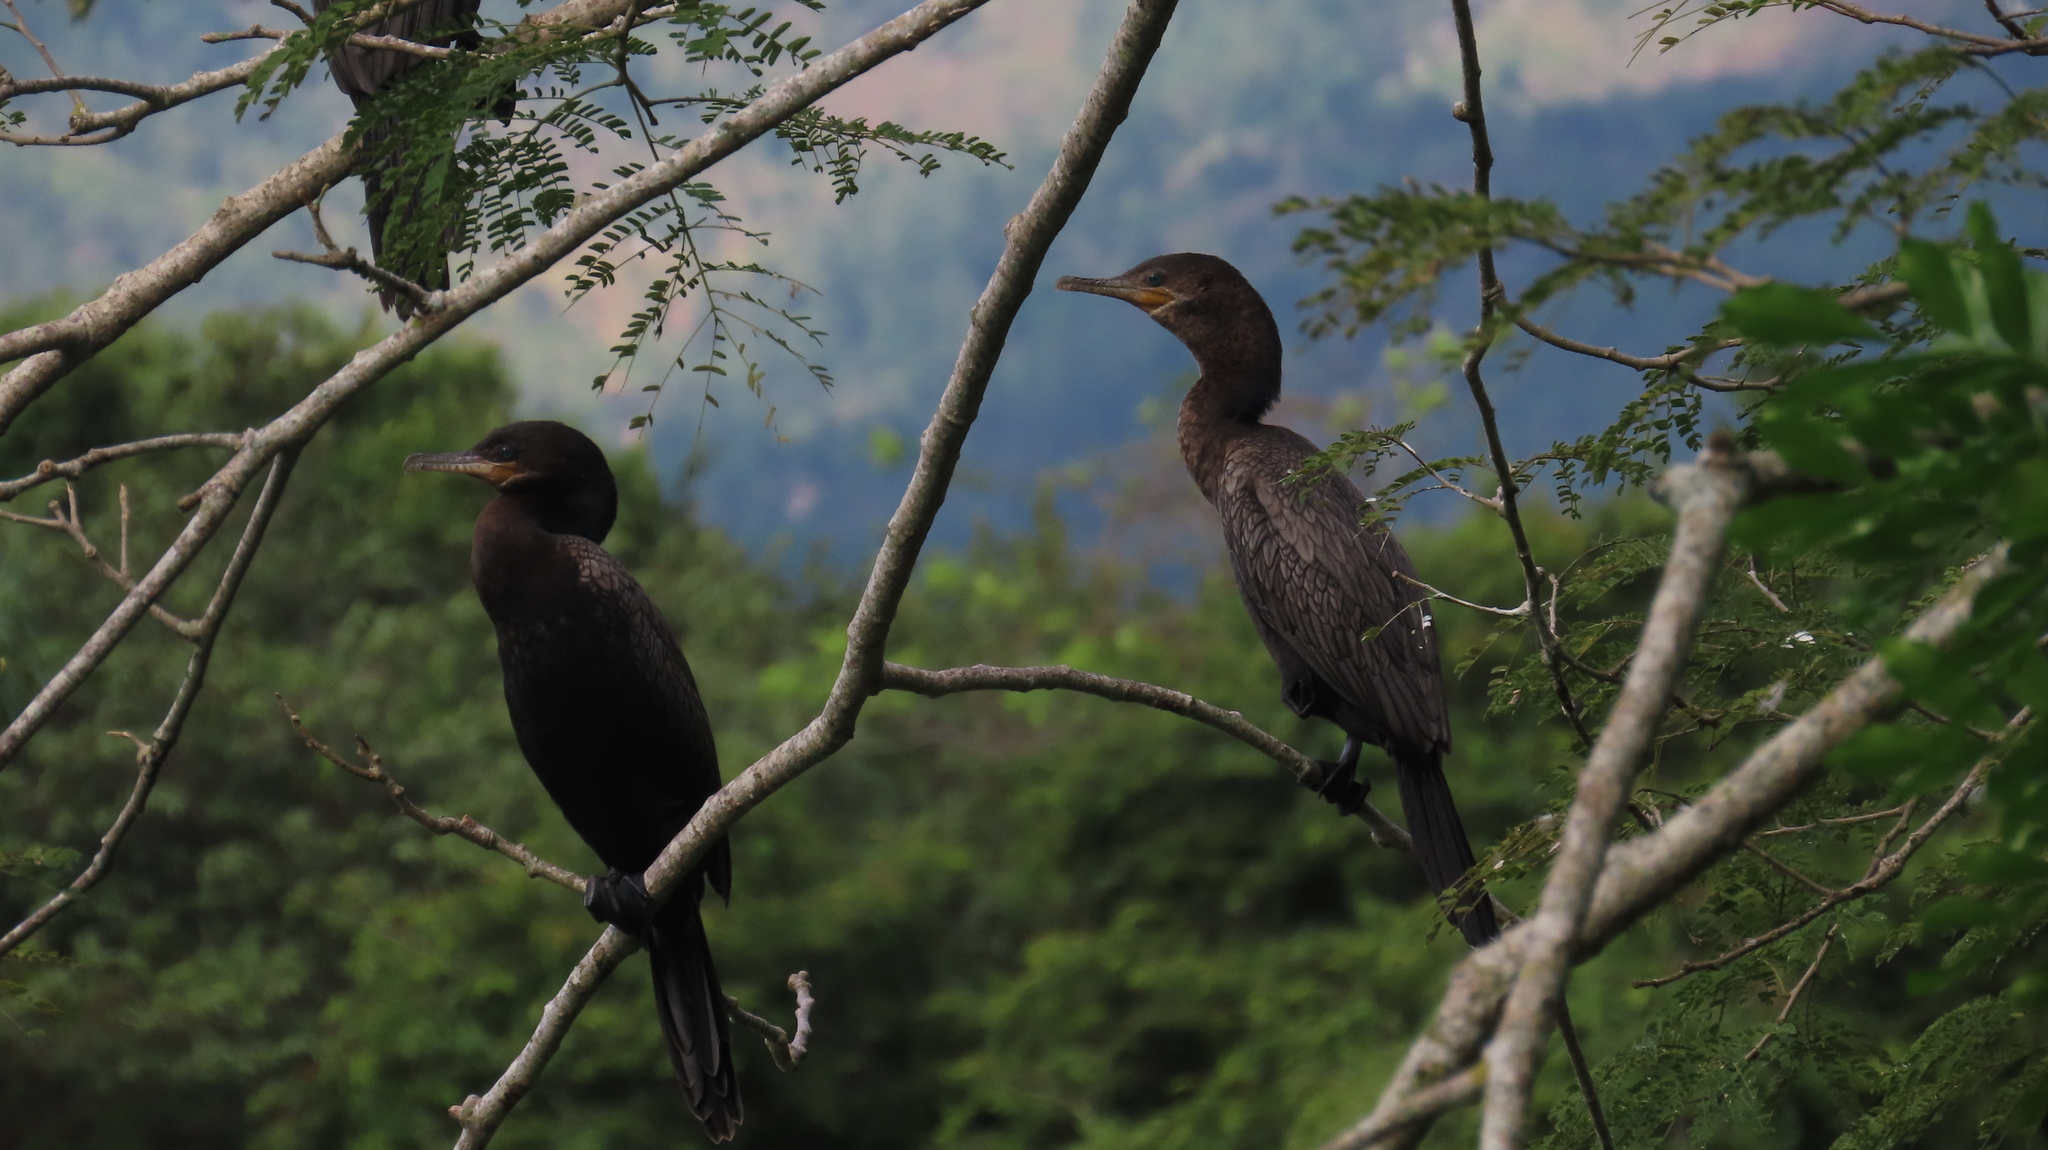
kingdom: Animalia
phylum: Chordata
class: Aves
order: Suliformes
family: Phalacrocoracidae
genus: Phalacrocorax
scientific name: Phalacrocorax brasilianus
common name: Neotropic cormorant
